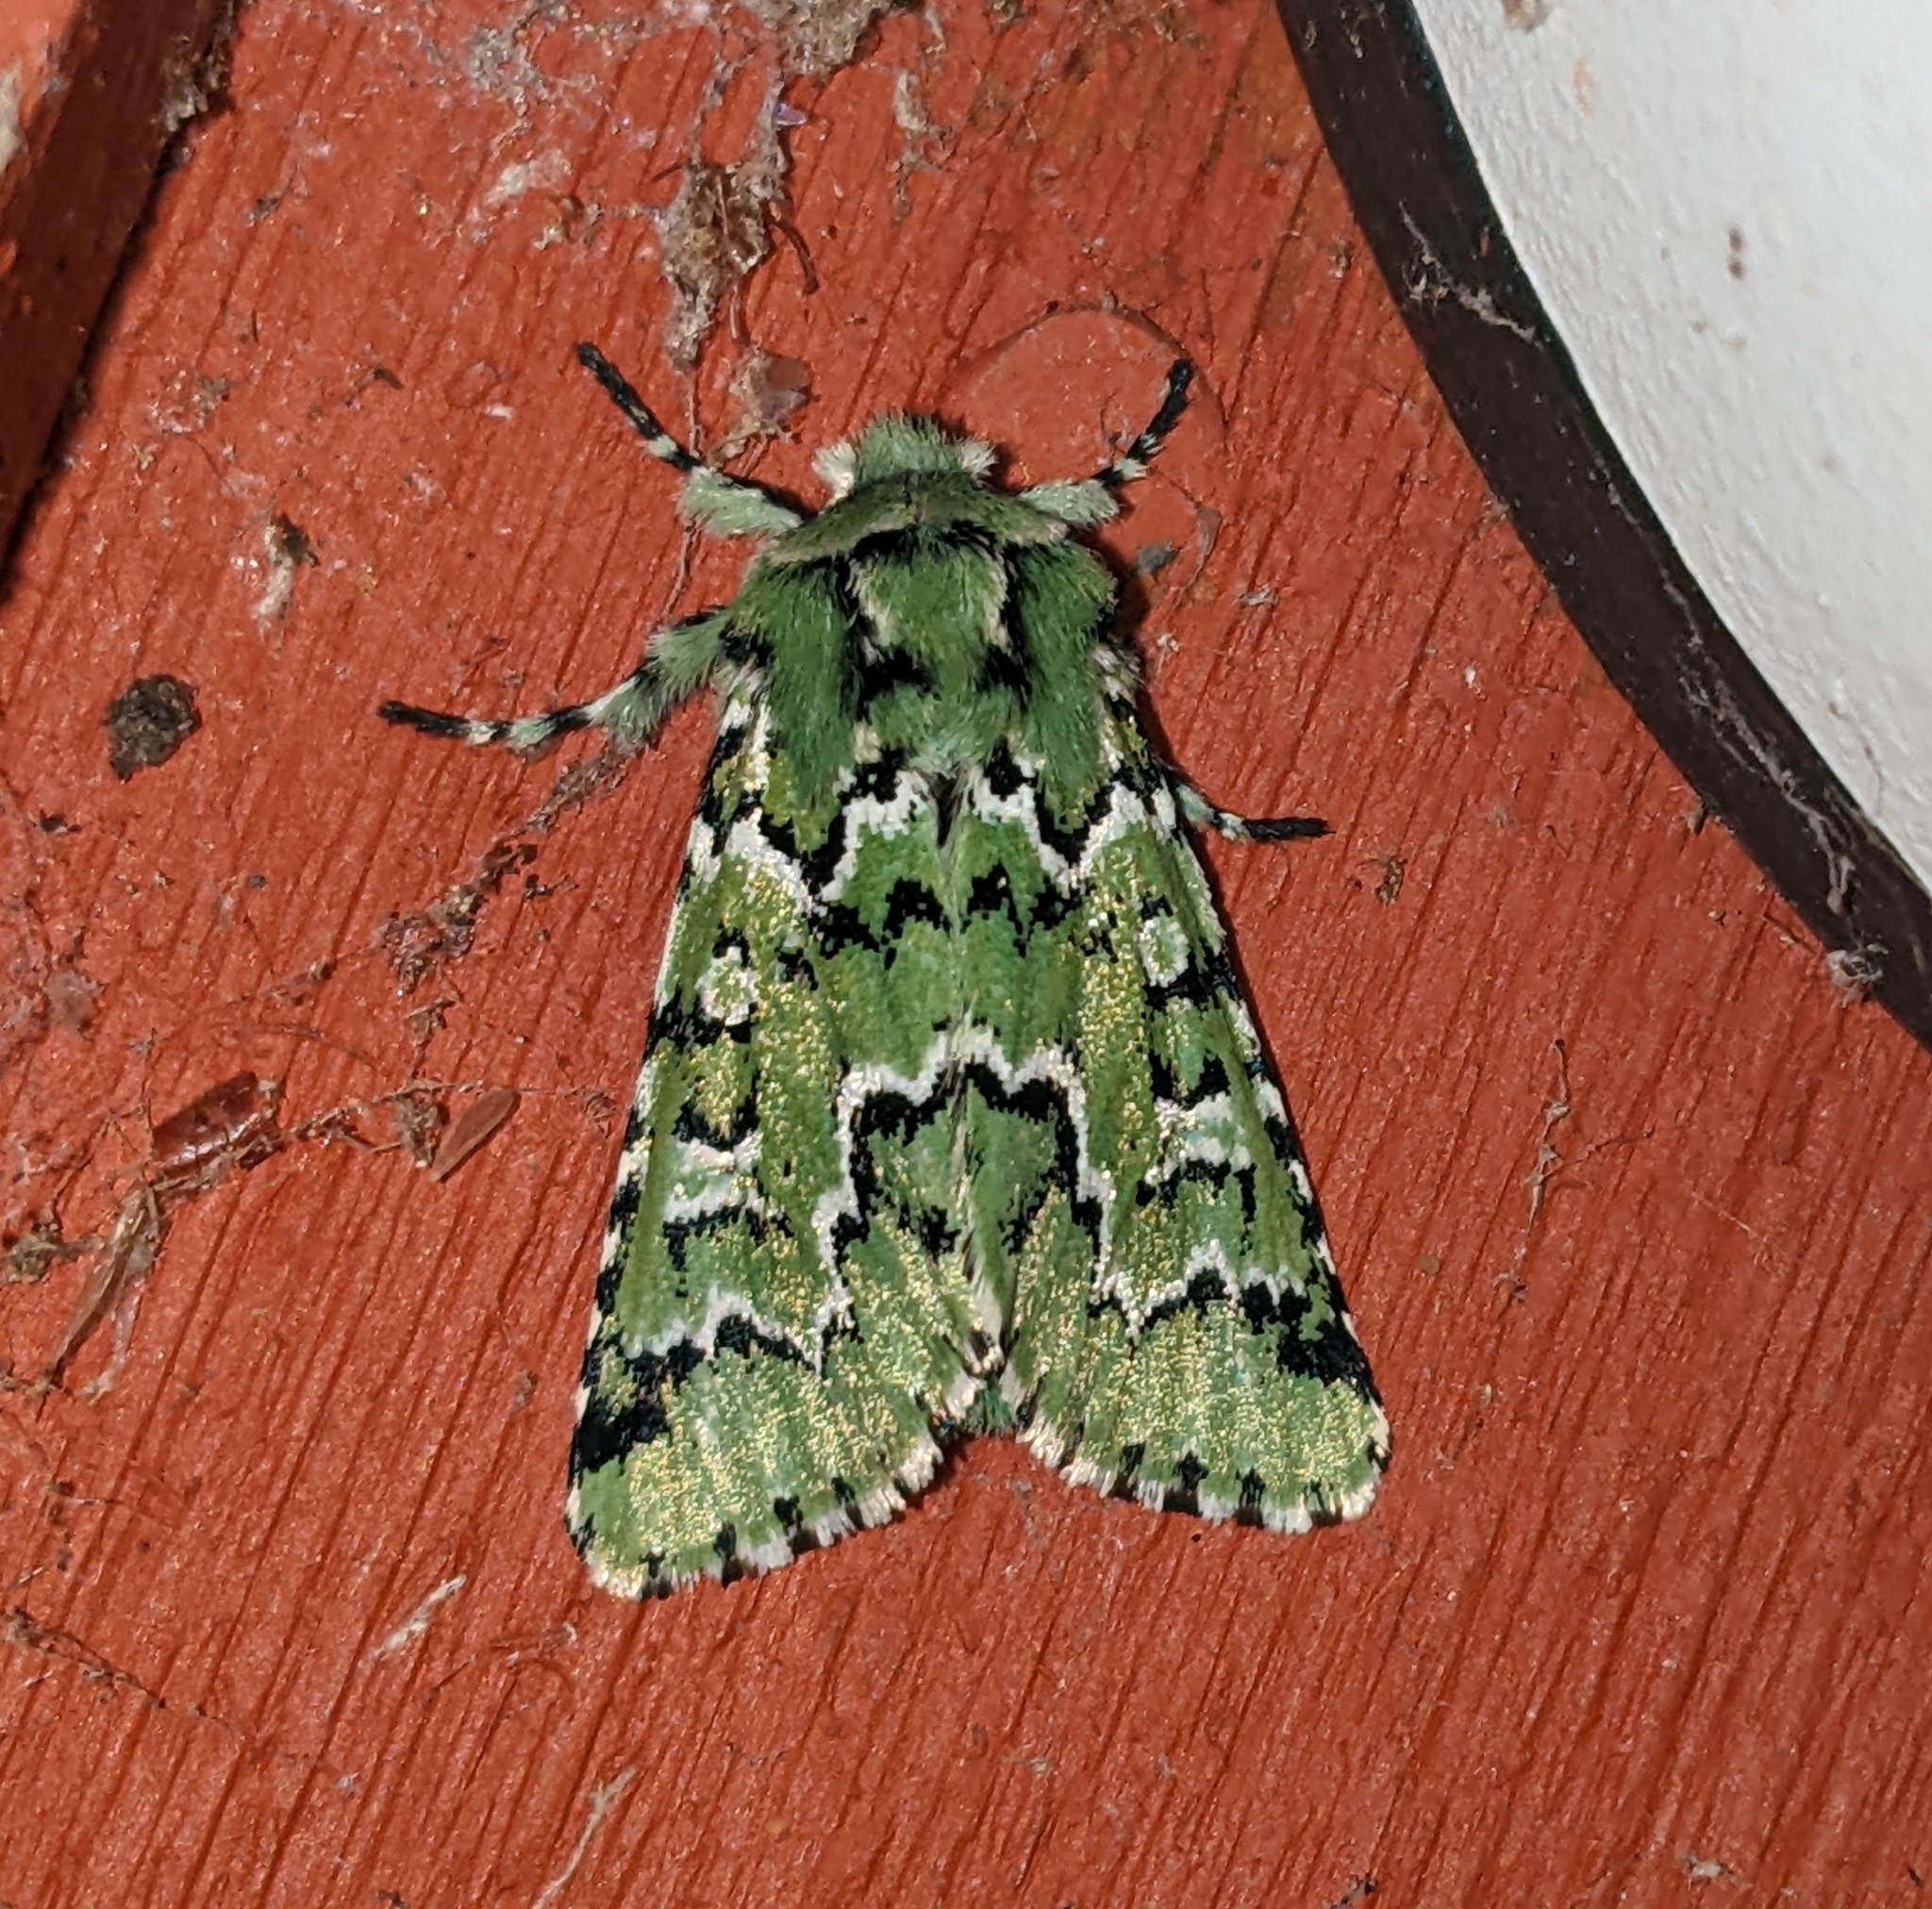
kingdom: Animalia
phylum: Arthropoda
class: Insecta
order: Lepidoptera
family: Noctuidae
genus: Feralia
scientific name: Feralia deceptiva
